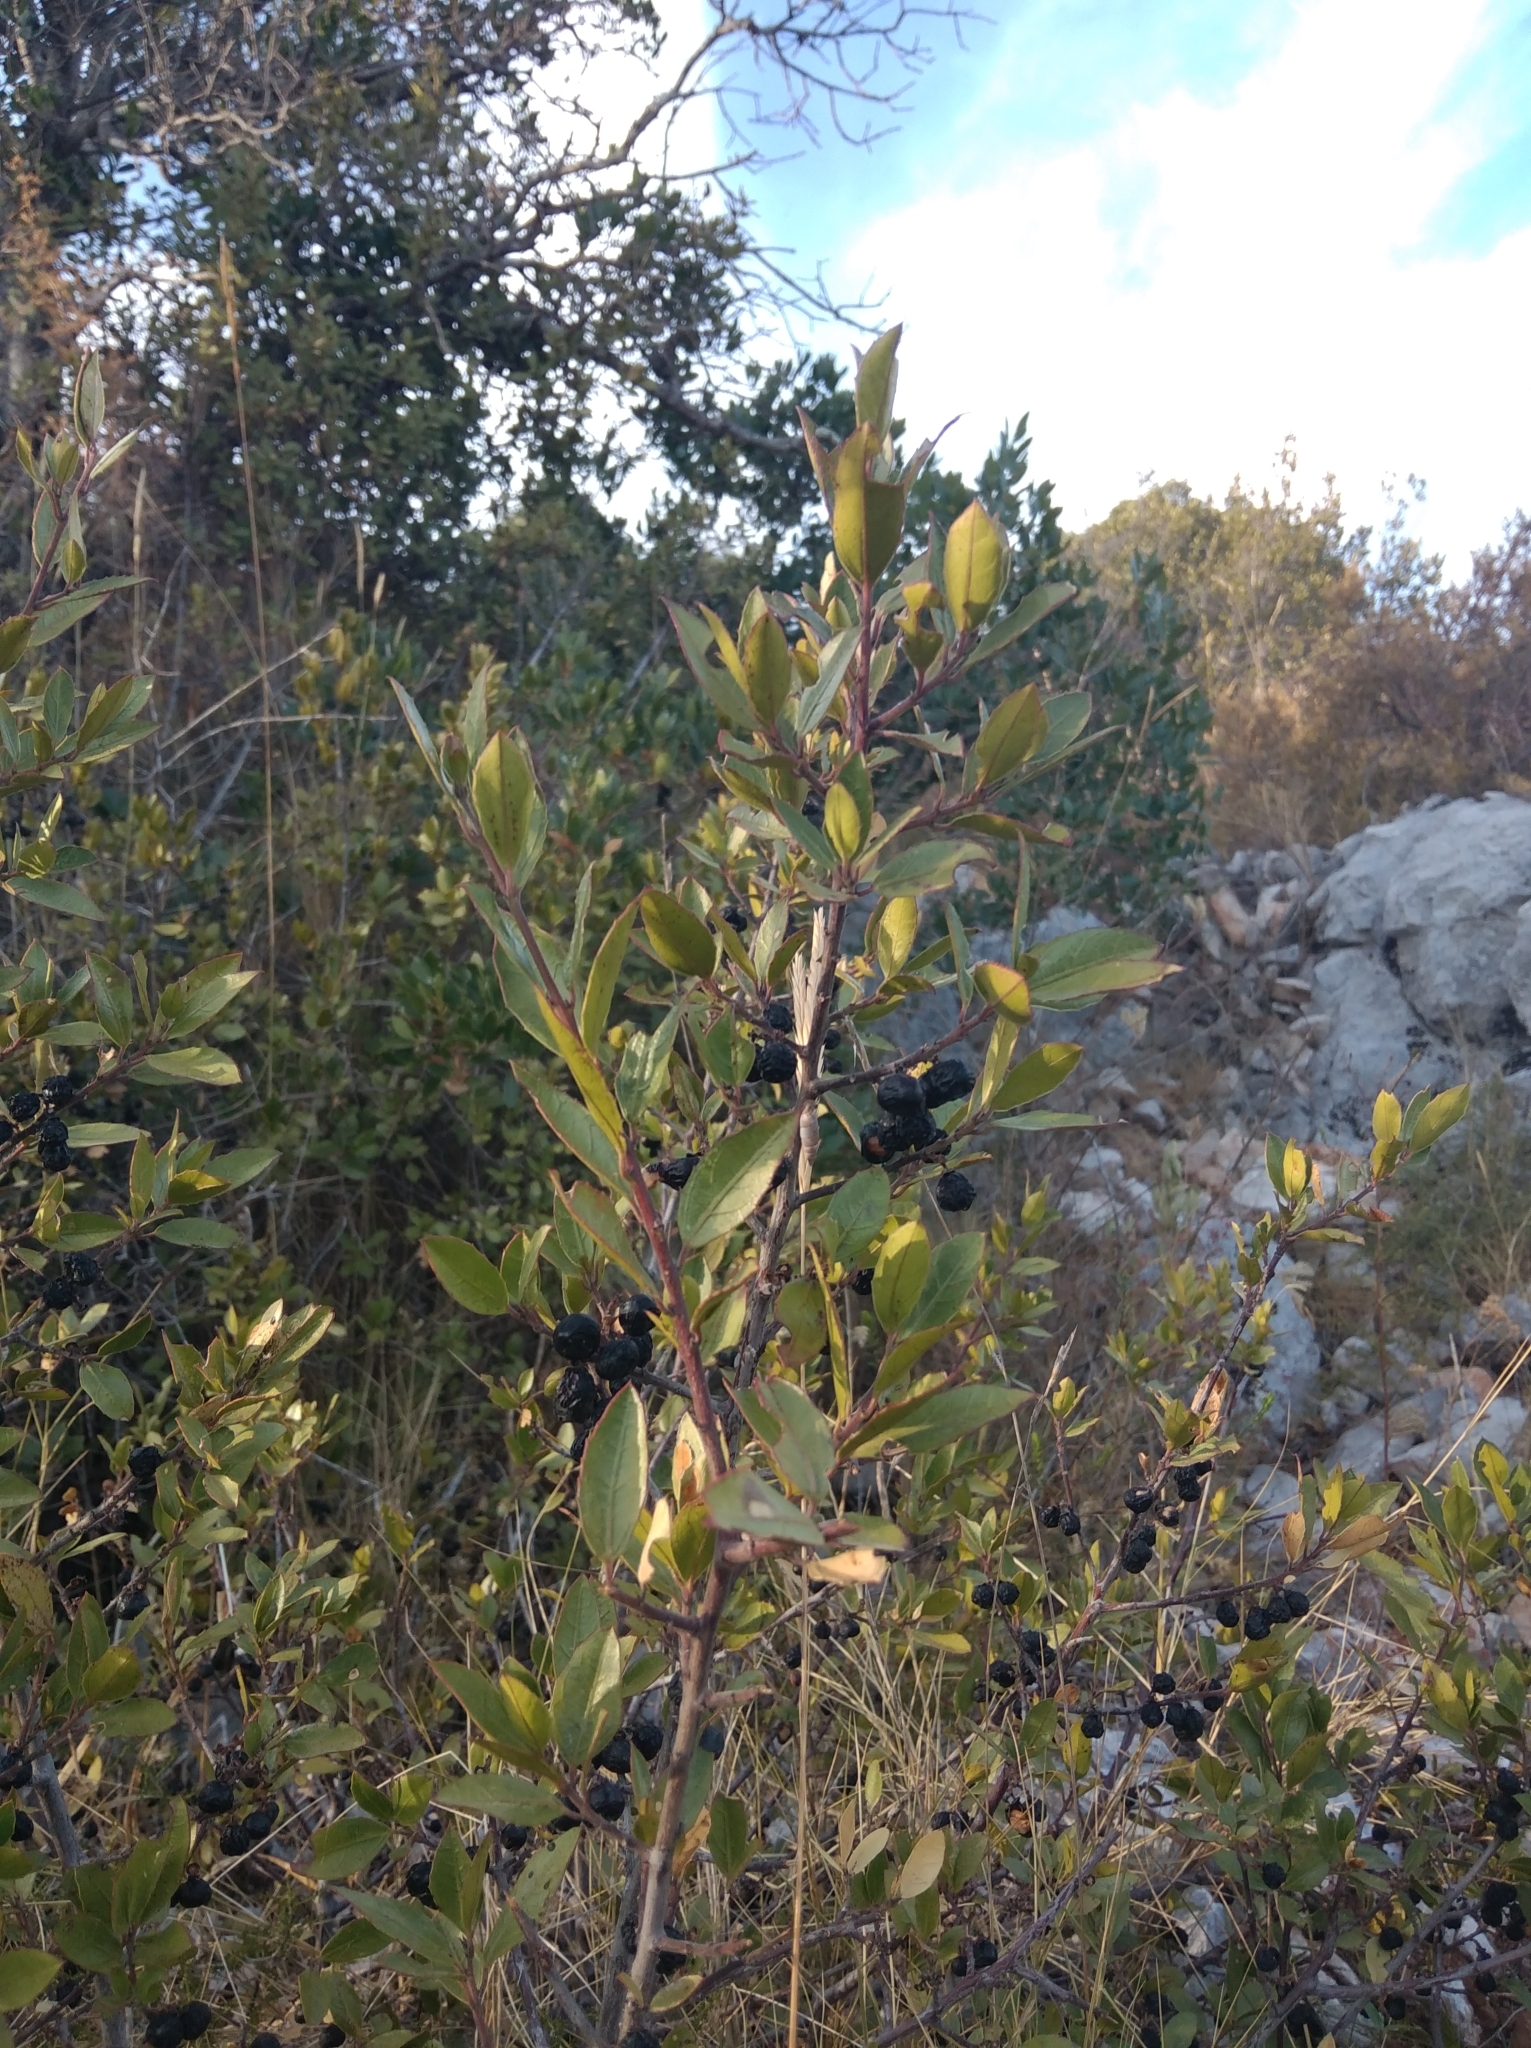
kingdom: Plantae
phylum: Tracheophyta
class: Magnoliopsida
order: Rosales
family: Rhamnaceae
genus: Rhamnus
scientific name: Rhamnus alaternus
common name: Mediterranean buckthorn
